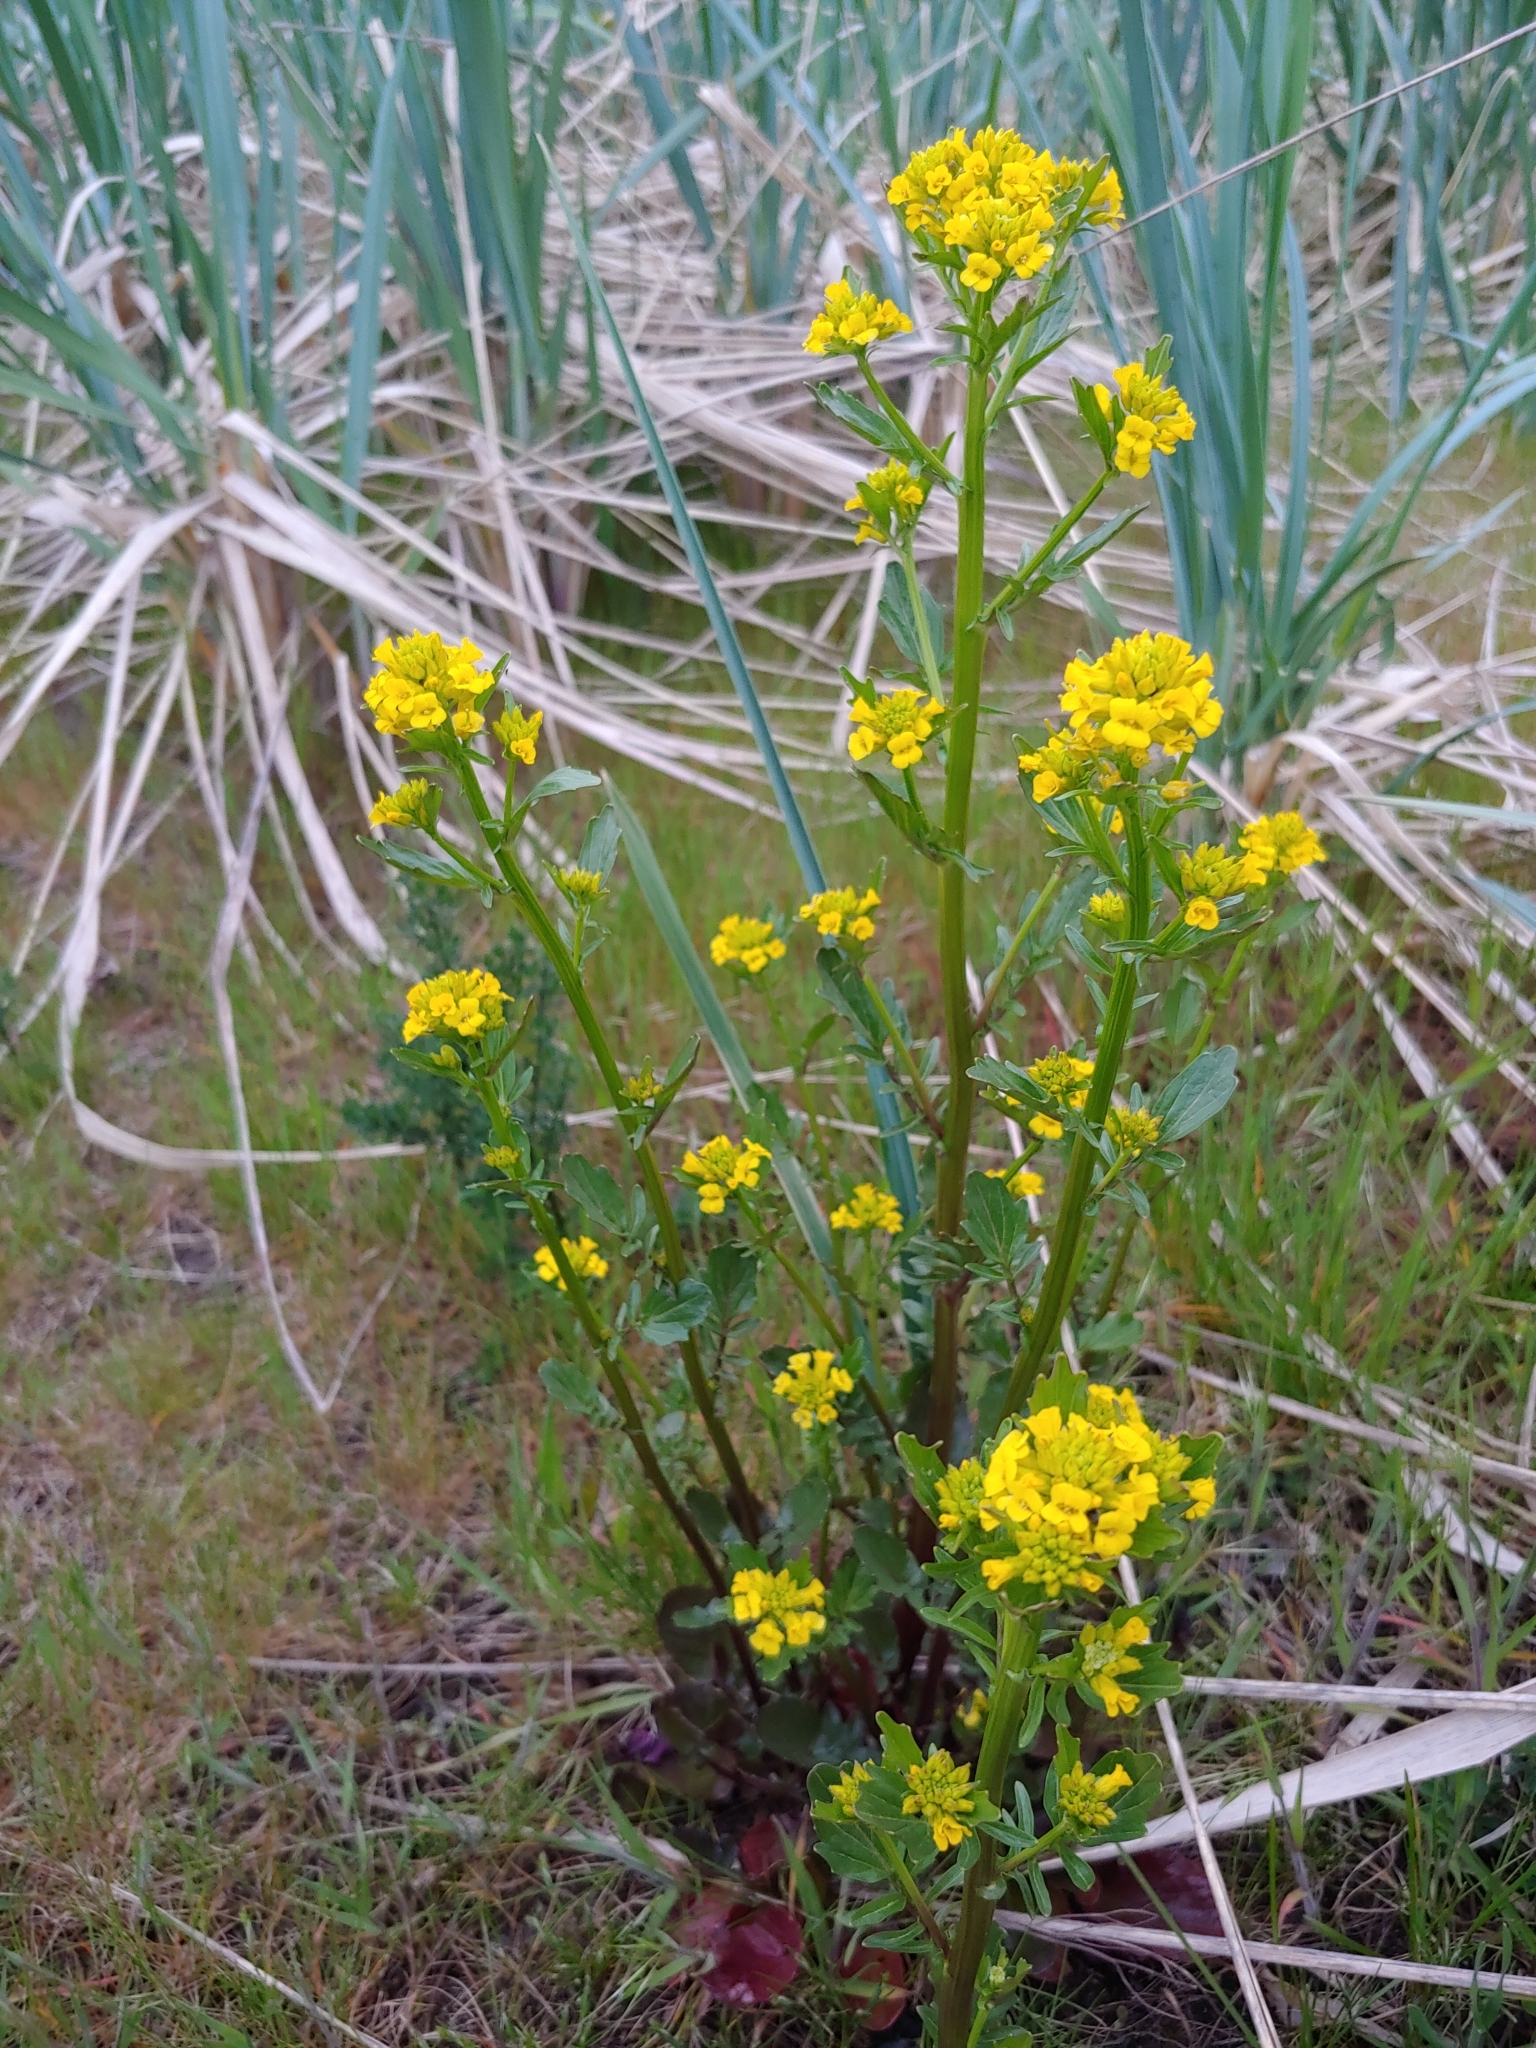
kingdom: Plantae
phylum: Tracheophyta
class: Magnoliopsida
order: Brassicales
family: Brassicaceae
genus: Barbarea
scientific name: Barbarea orthoceras
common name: American wintercress
